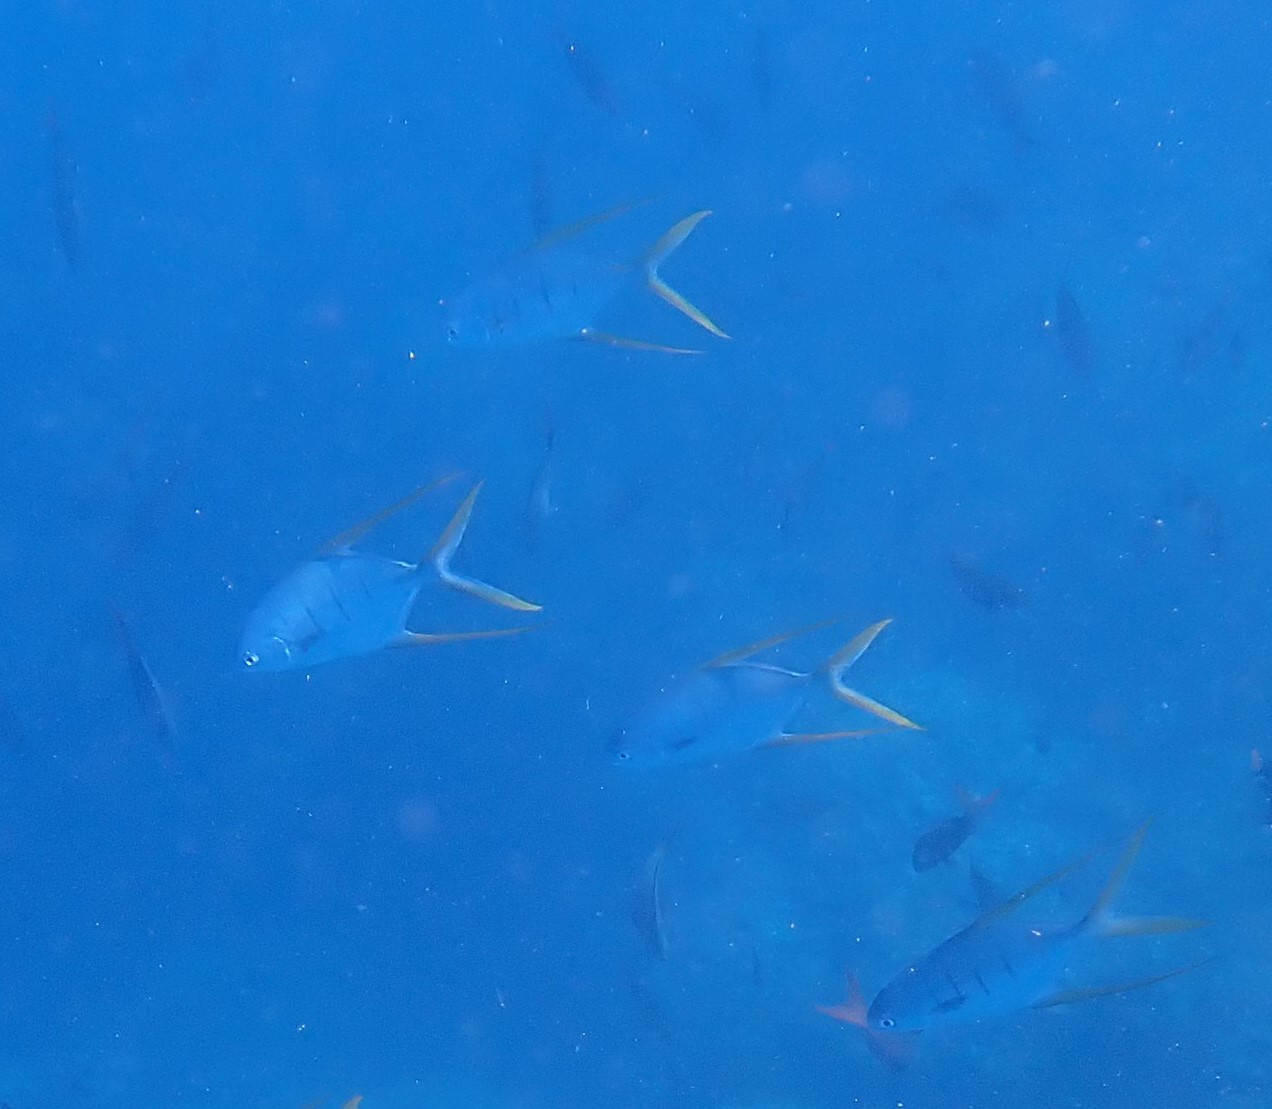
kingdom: Animalia
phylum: Chordata
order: Perciformes
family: Carangidae
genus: Trachinotus
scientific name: Trachinotus rhodopus
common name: Gafftopsail pompano
